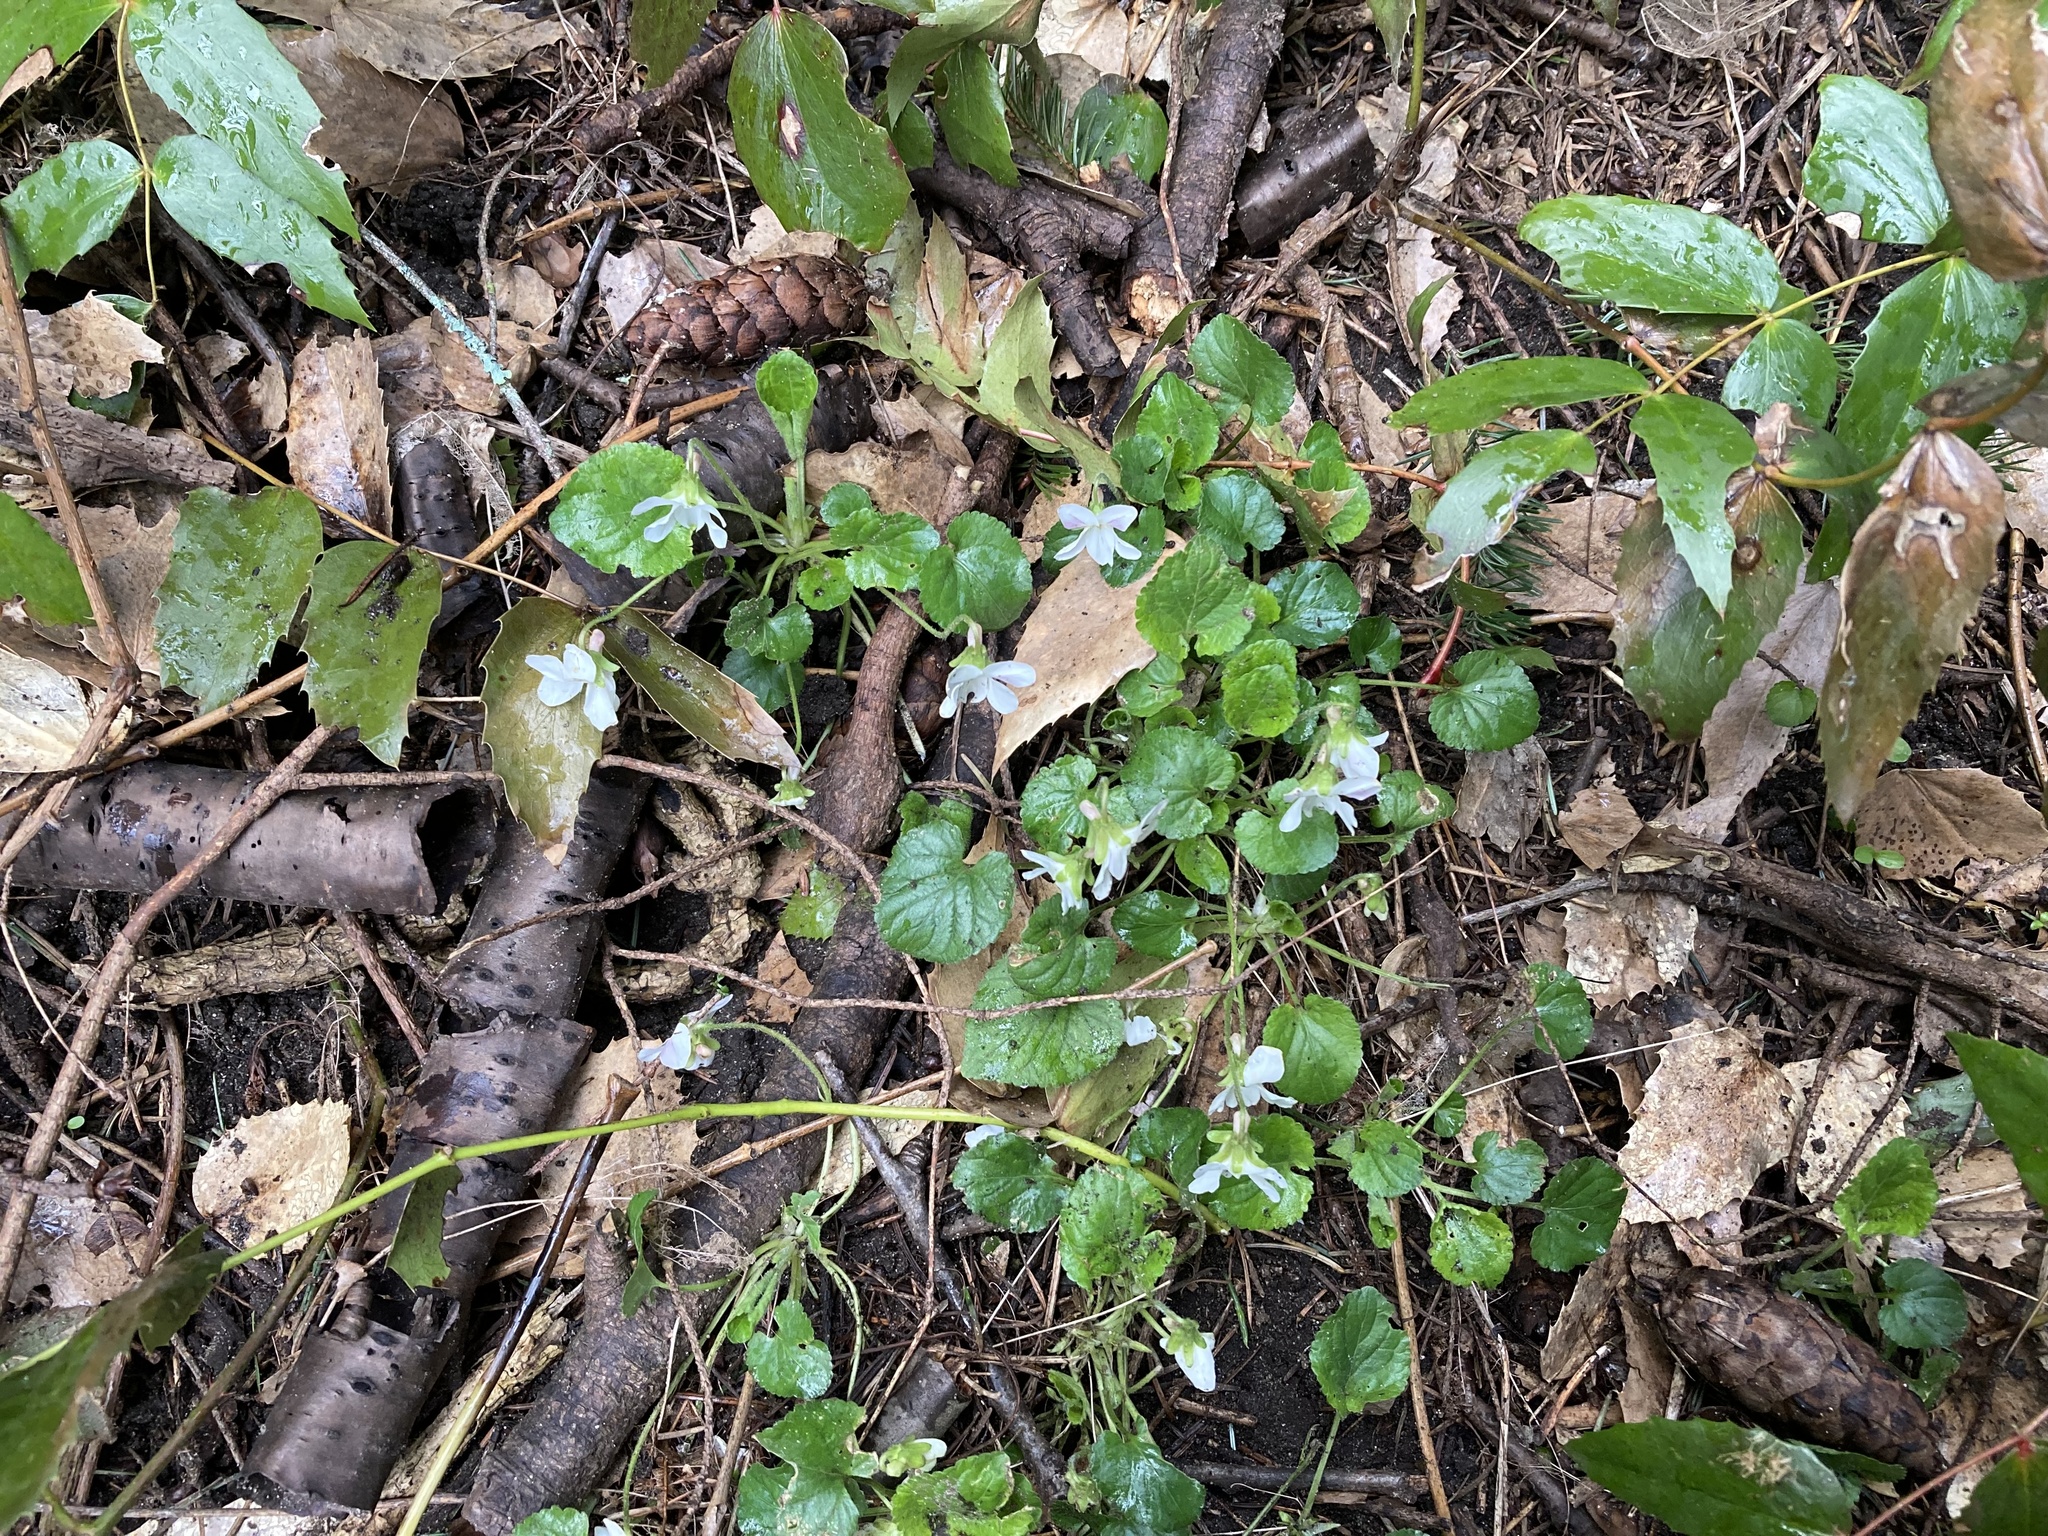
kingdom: Plantae
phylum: Tracheophyta
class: Magnoliopsida
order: Malpighiales
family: Violaceae
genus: Viola
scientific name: Viola odorata
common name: Sweet violet
